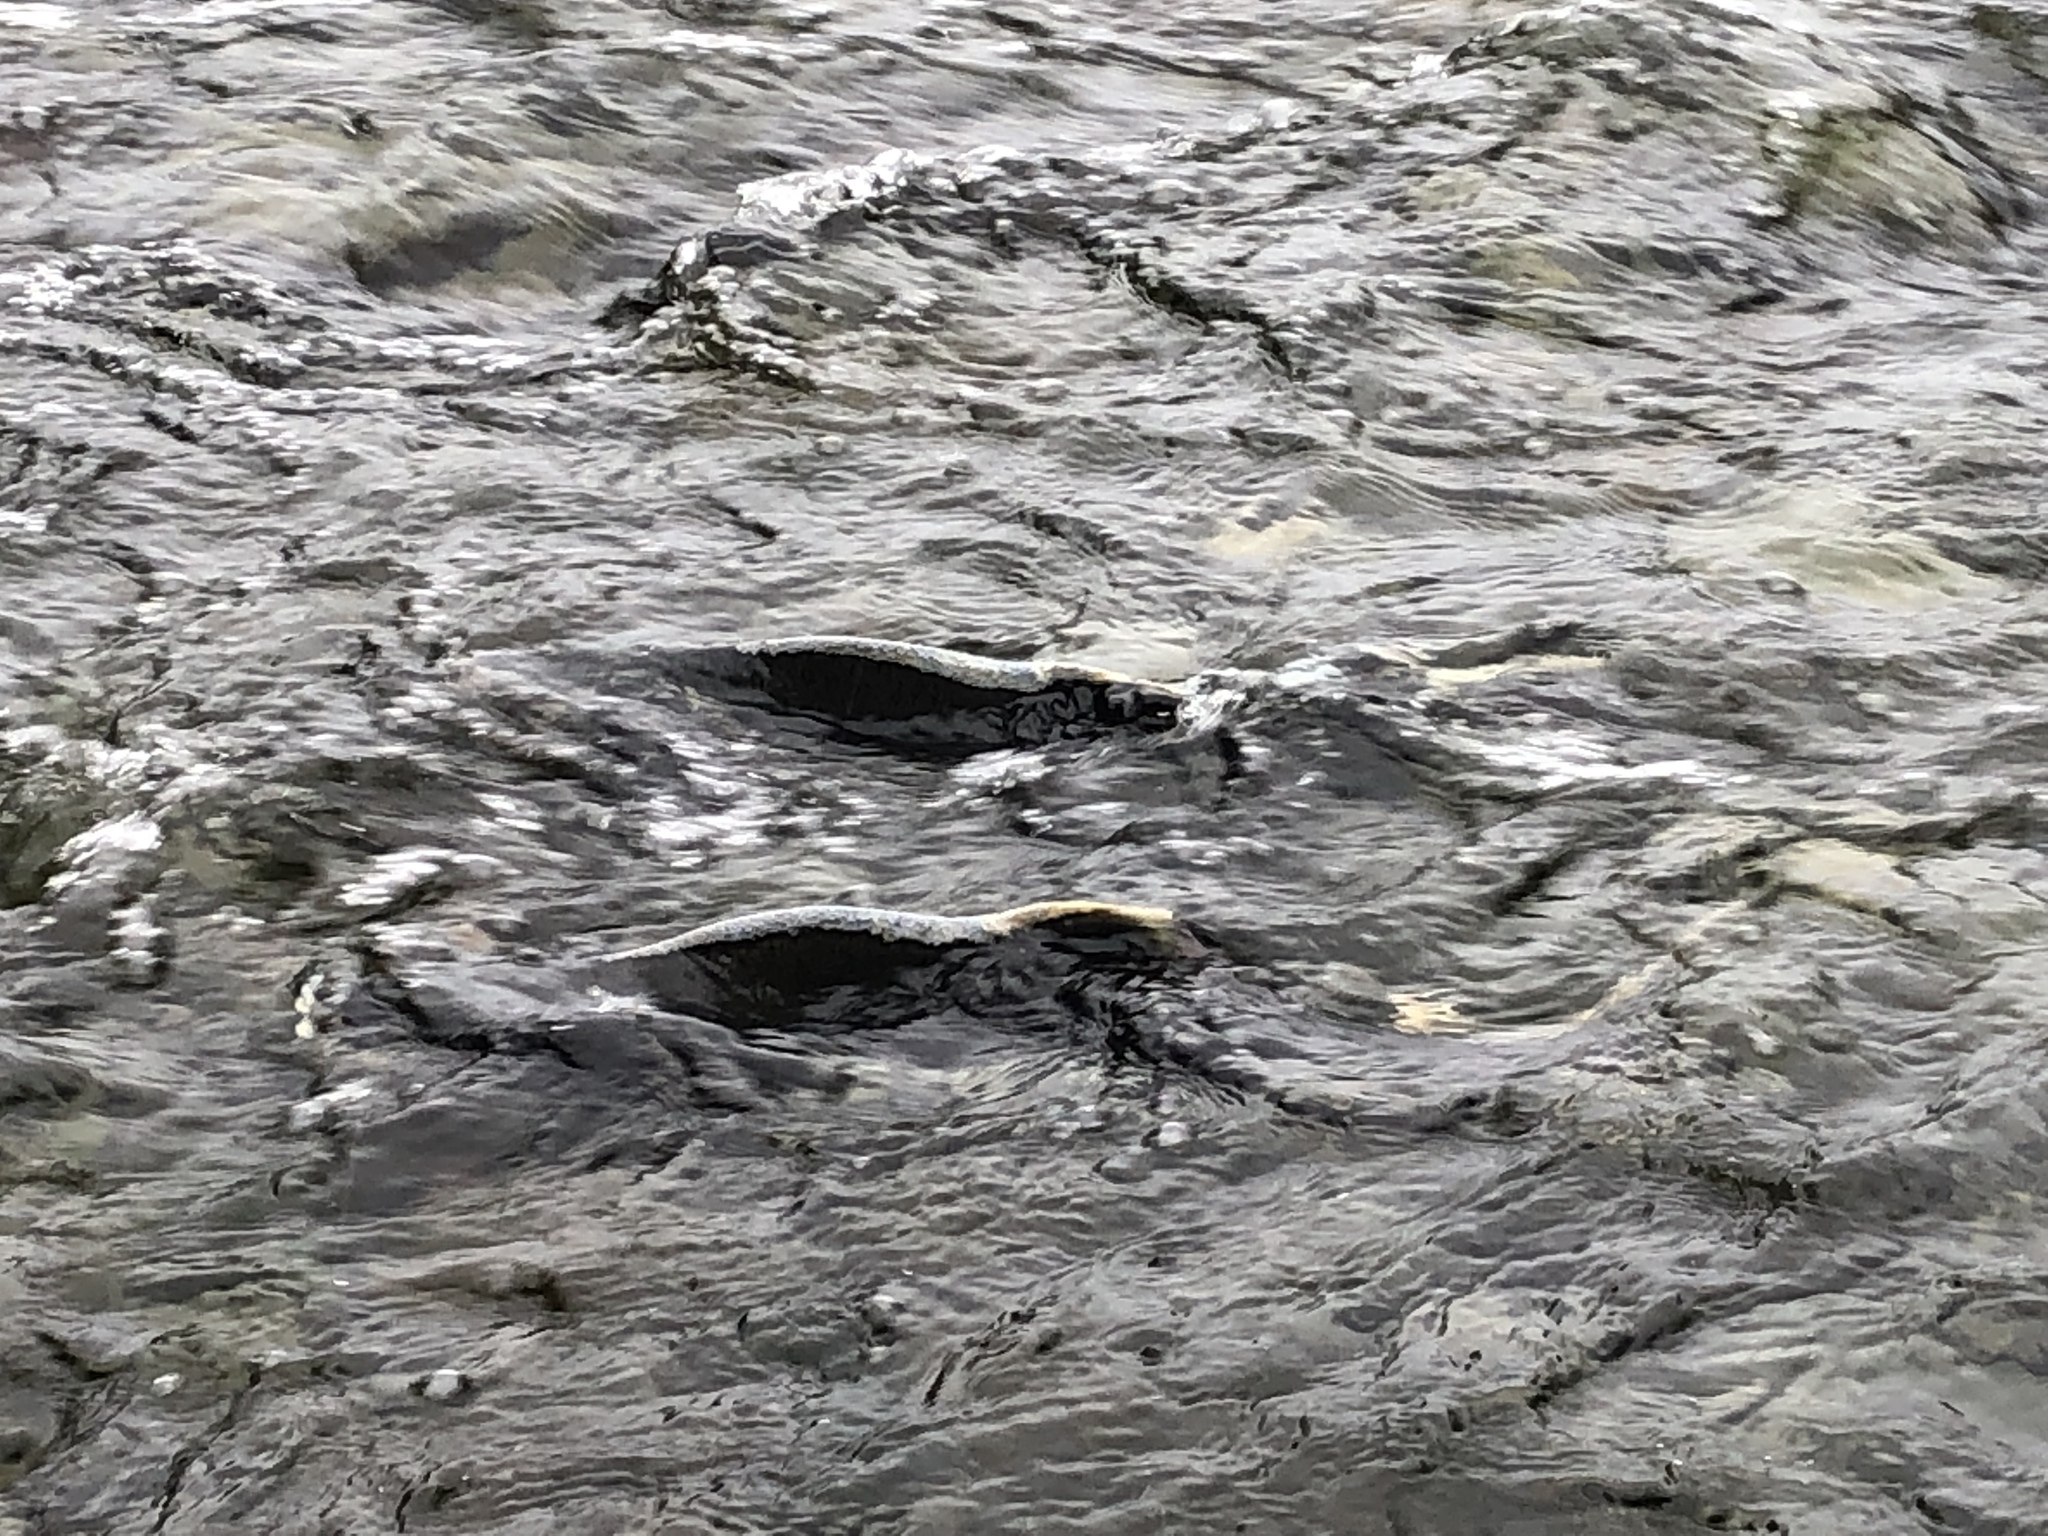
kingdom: Animalia
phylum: Chordata
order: Salmoniformes
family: Salmonidae
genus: Oncorhynchus
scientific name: Oncorhynchus gorbuscha
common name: Humpback salmon
